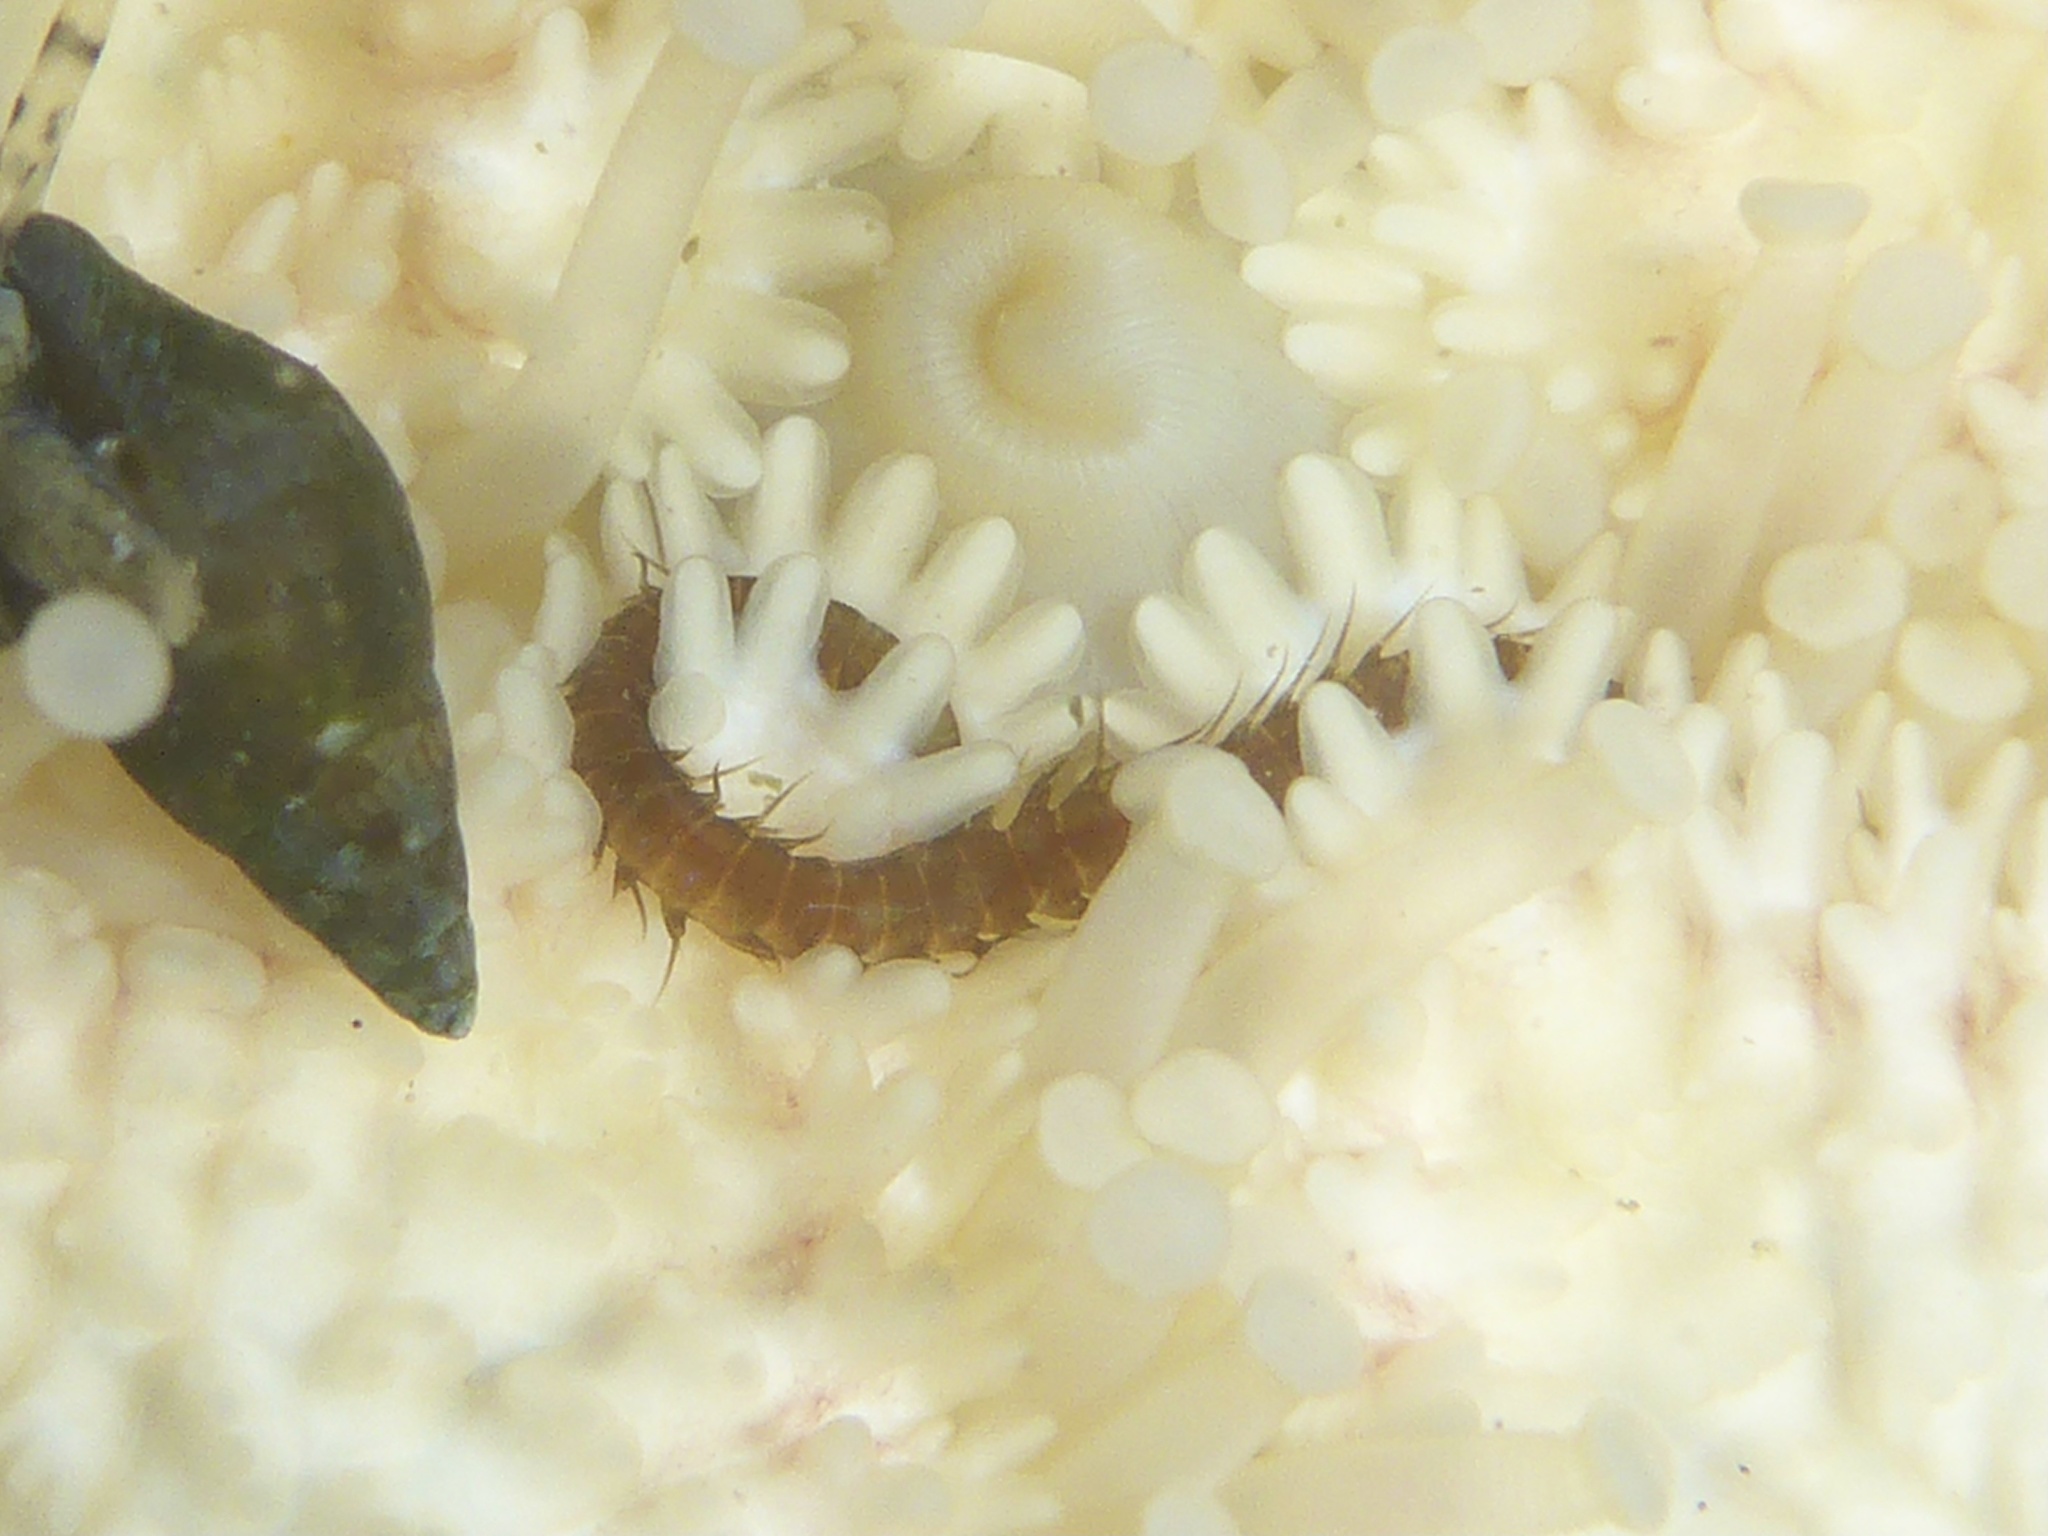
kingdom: Animalia
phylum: Annelida
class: Polychaeta
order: Phyllodocida
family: Hesionidae
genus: Oxydromus
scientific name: Oxydromus pugettensis
